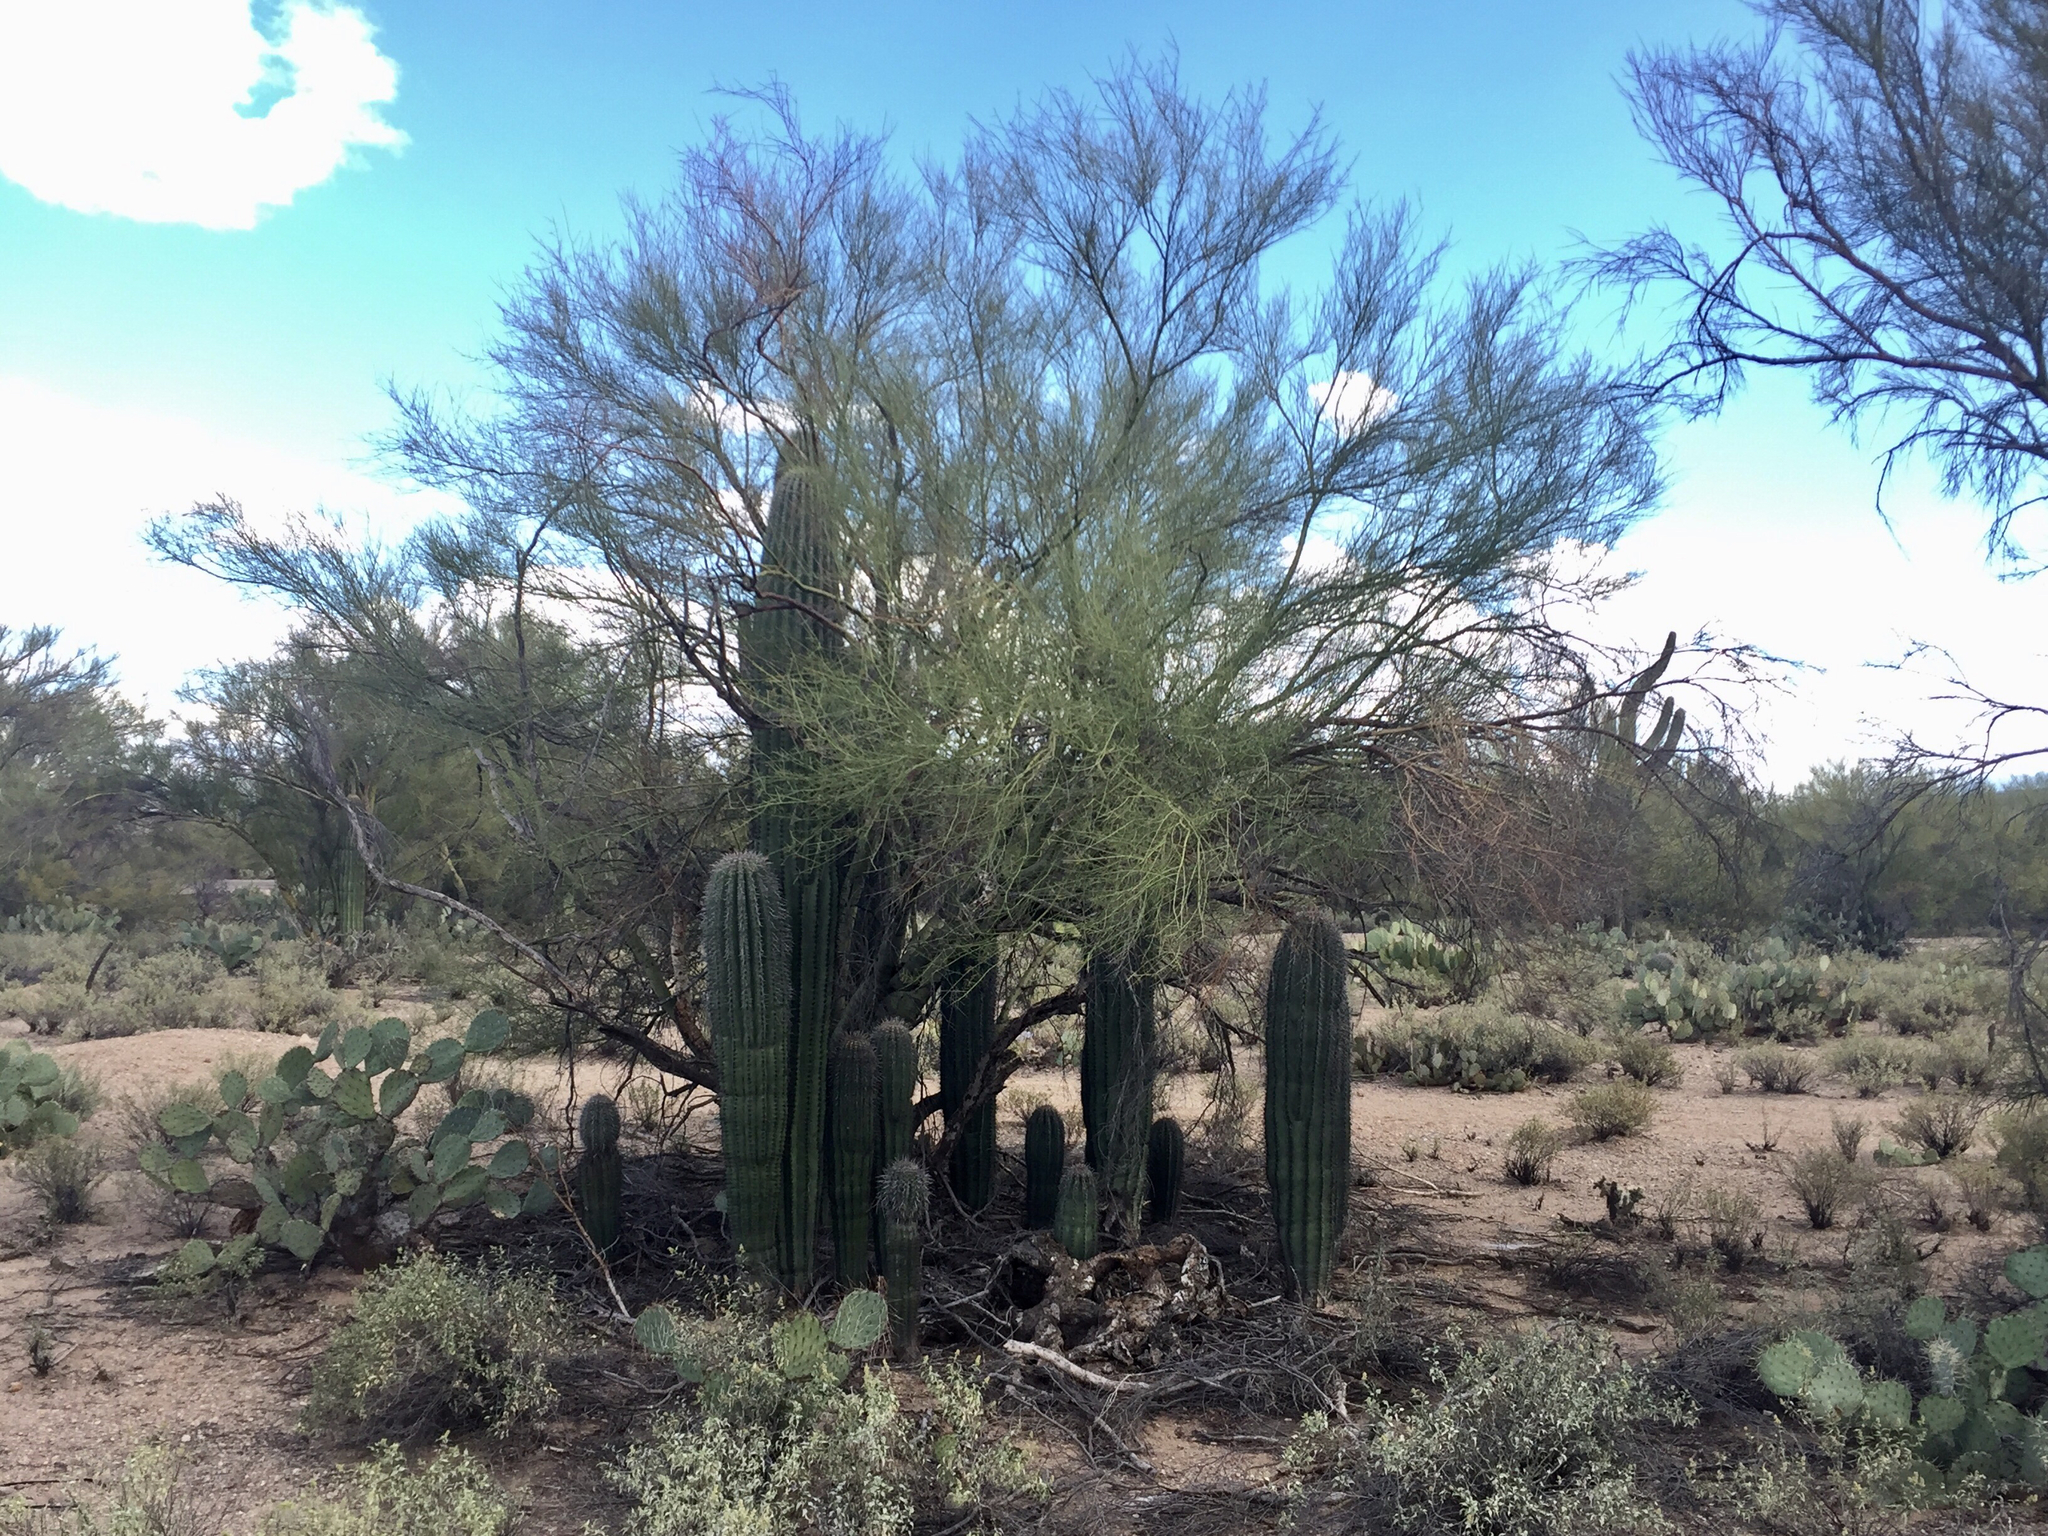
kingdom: Plantae
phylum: Tracheophyta
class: Magnoliopsida
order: Fabales
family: Fabaceae
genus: Parkinsonia
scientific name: Parkinsonia microphylla
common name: Yellow paloverde
